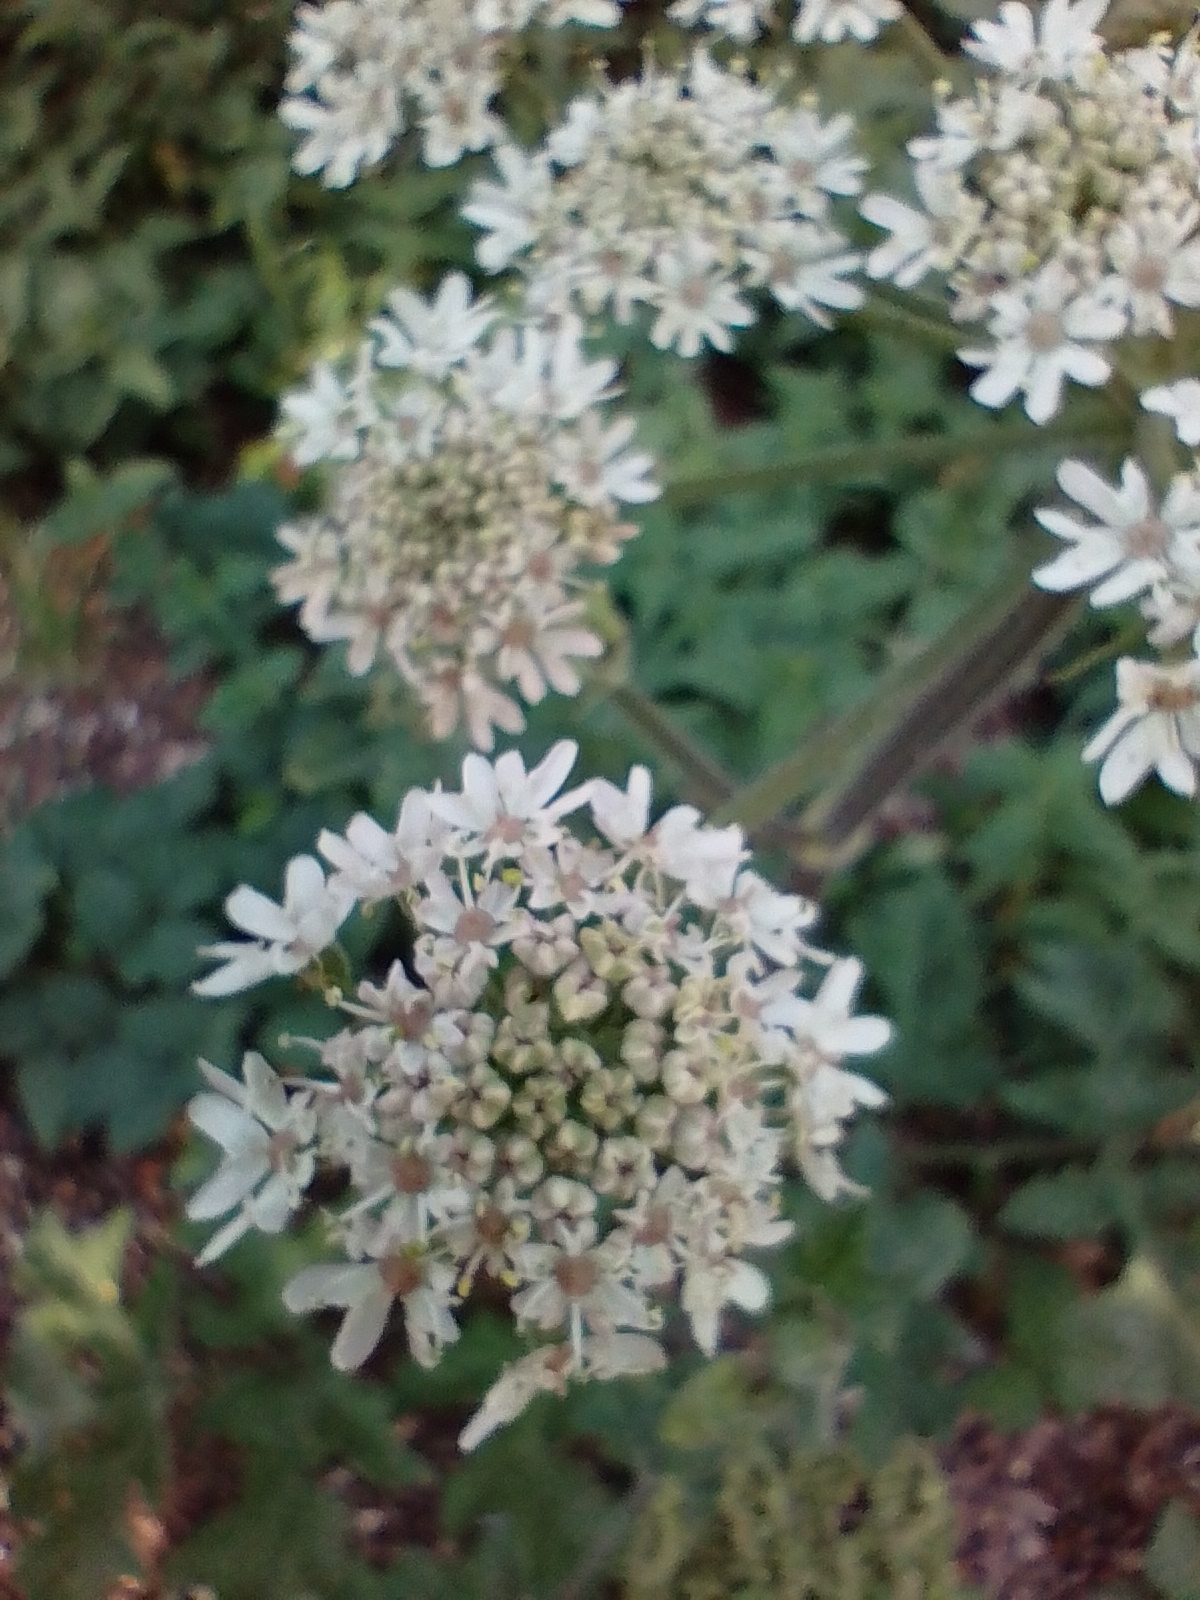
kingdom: Plantae
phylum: Tracheophyta
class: Magnoliopsida
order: Apiales
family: Apiaceae
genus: Heracleum
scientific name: Heracleum sphondylium
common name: Hogweed
